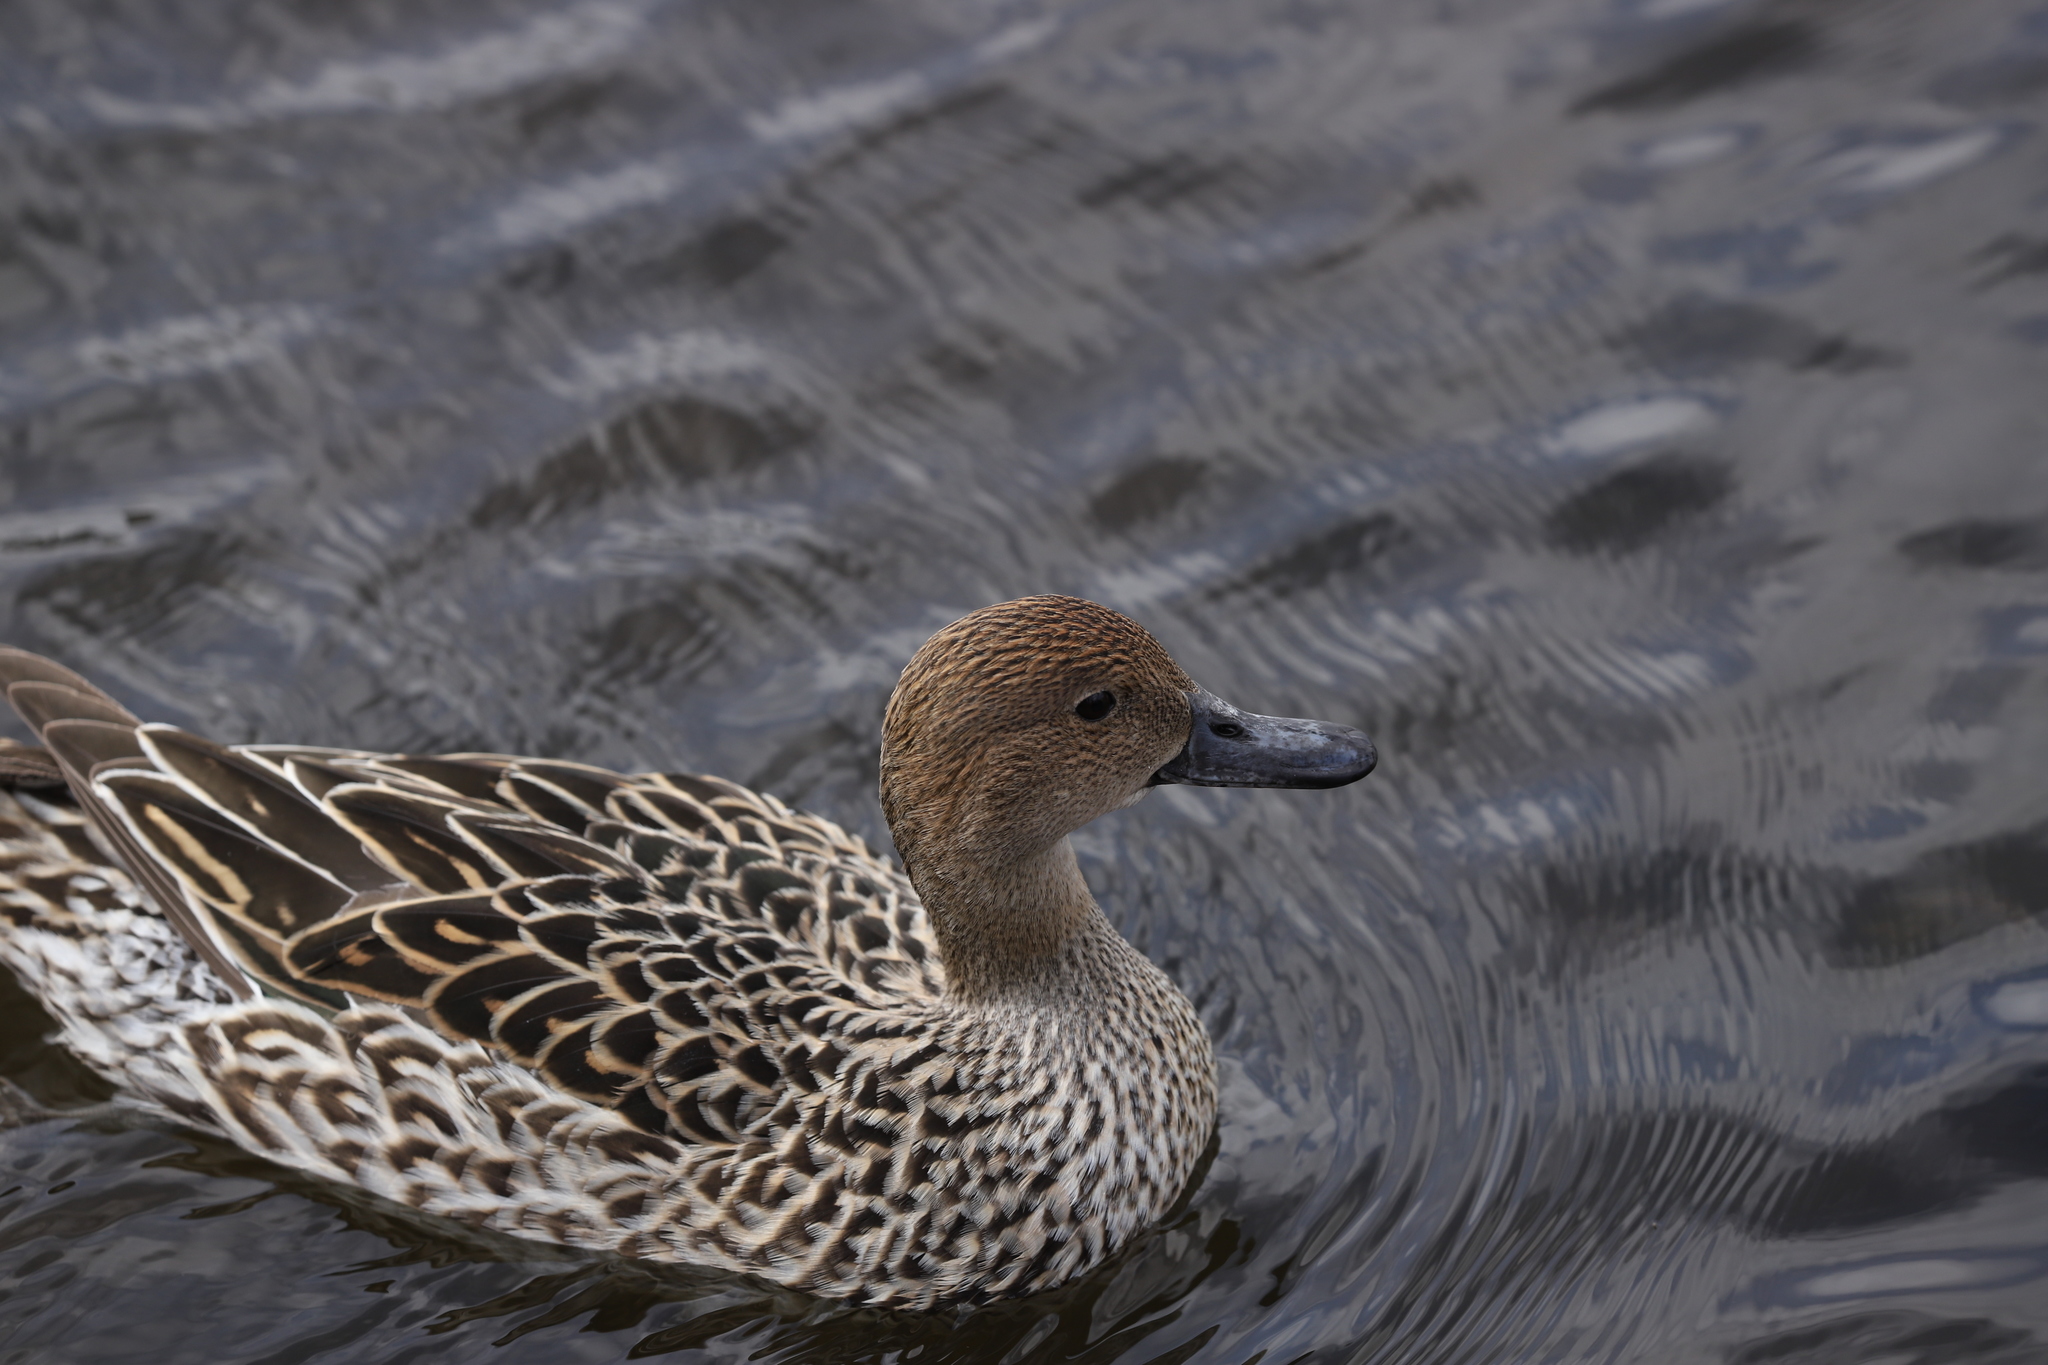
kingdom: Animalia
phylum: Chordata
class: Aves
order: Anseriformes
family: Anatidae
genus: Anas
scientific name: Anas acuta
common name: Northern pintail
